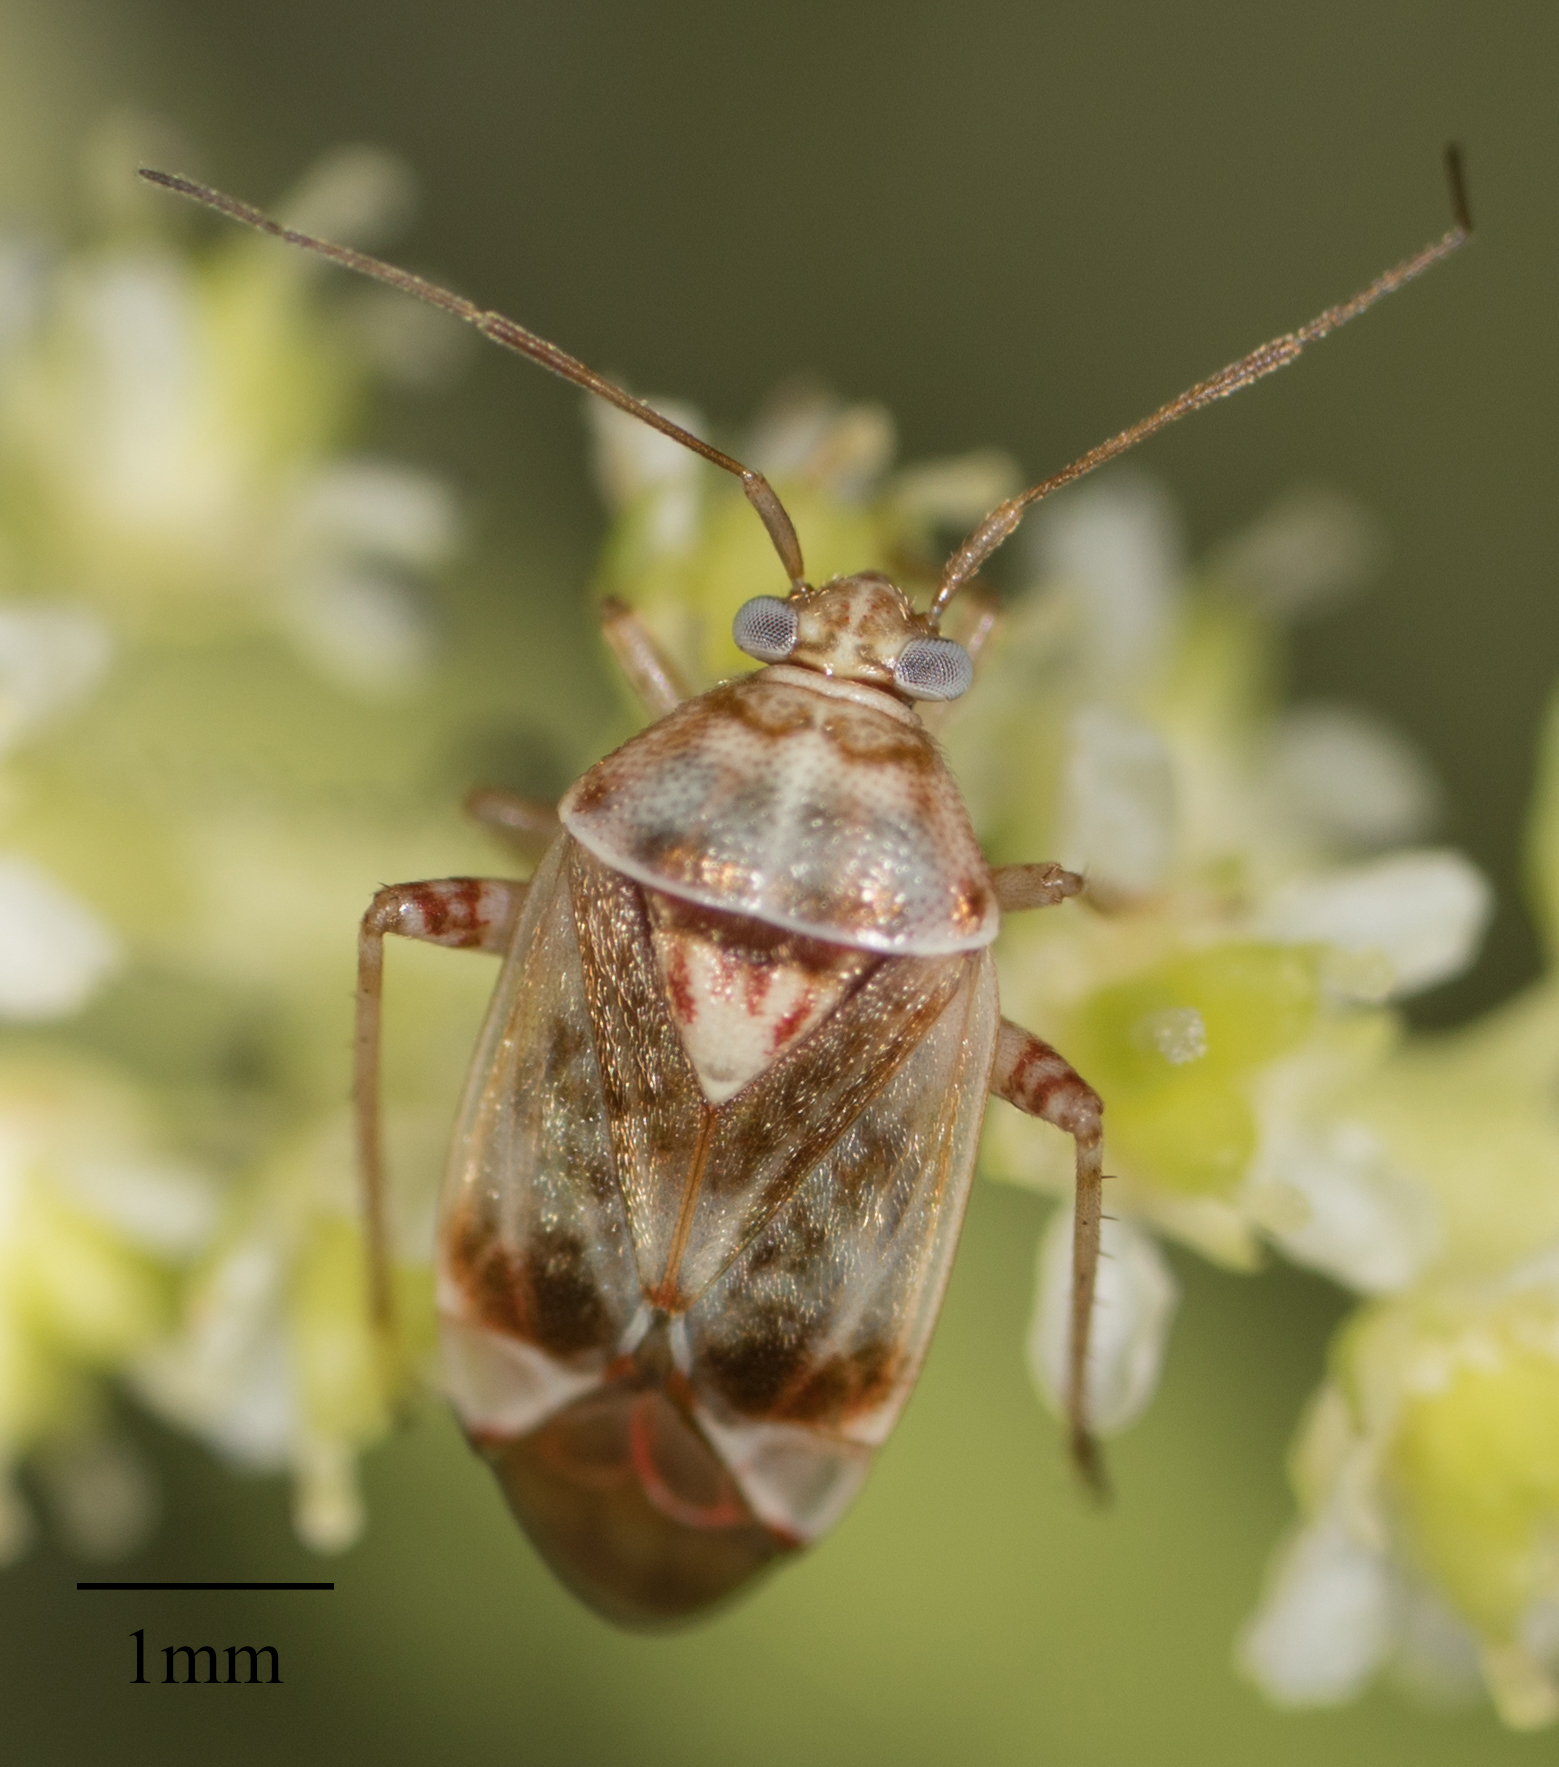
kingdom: Animalia
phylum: Arthropoda
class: Insecta
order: Hemiptera
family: Miridae
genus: Nonlygus
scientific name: Nonlygus nubilatus
